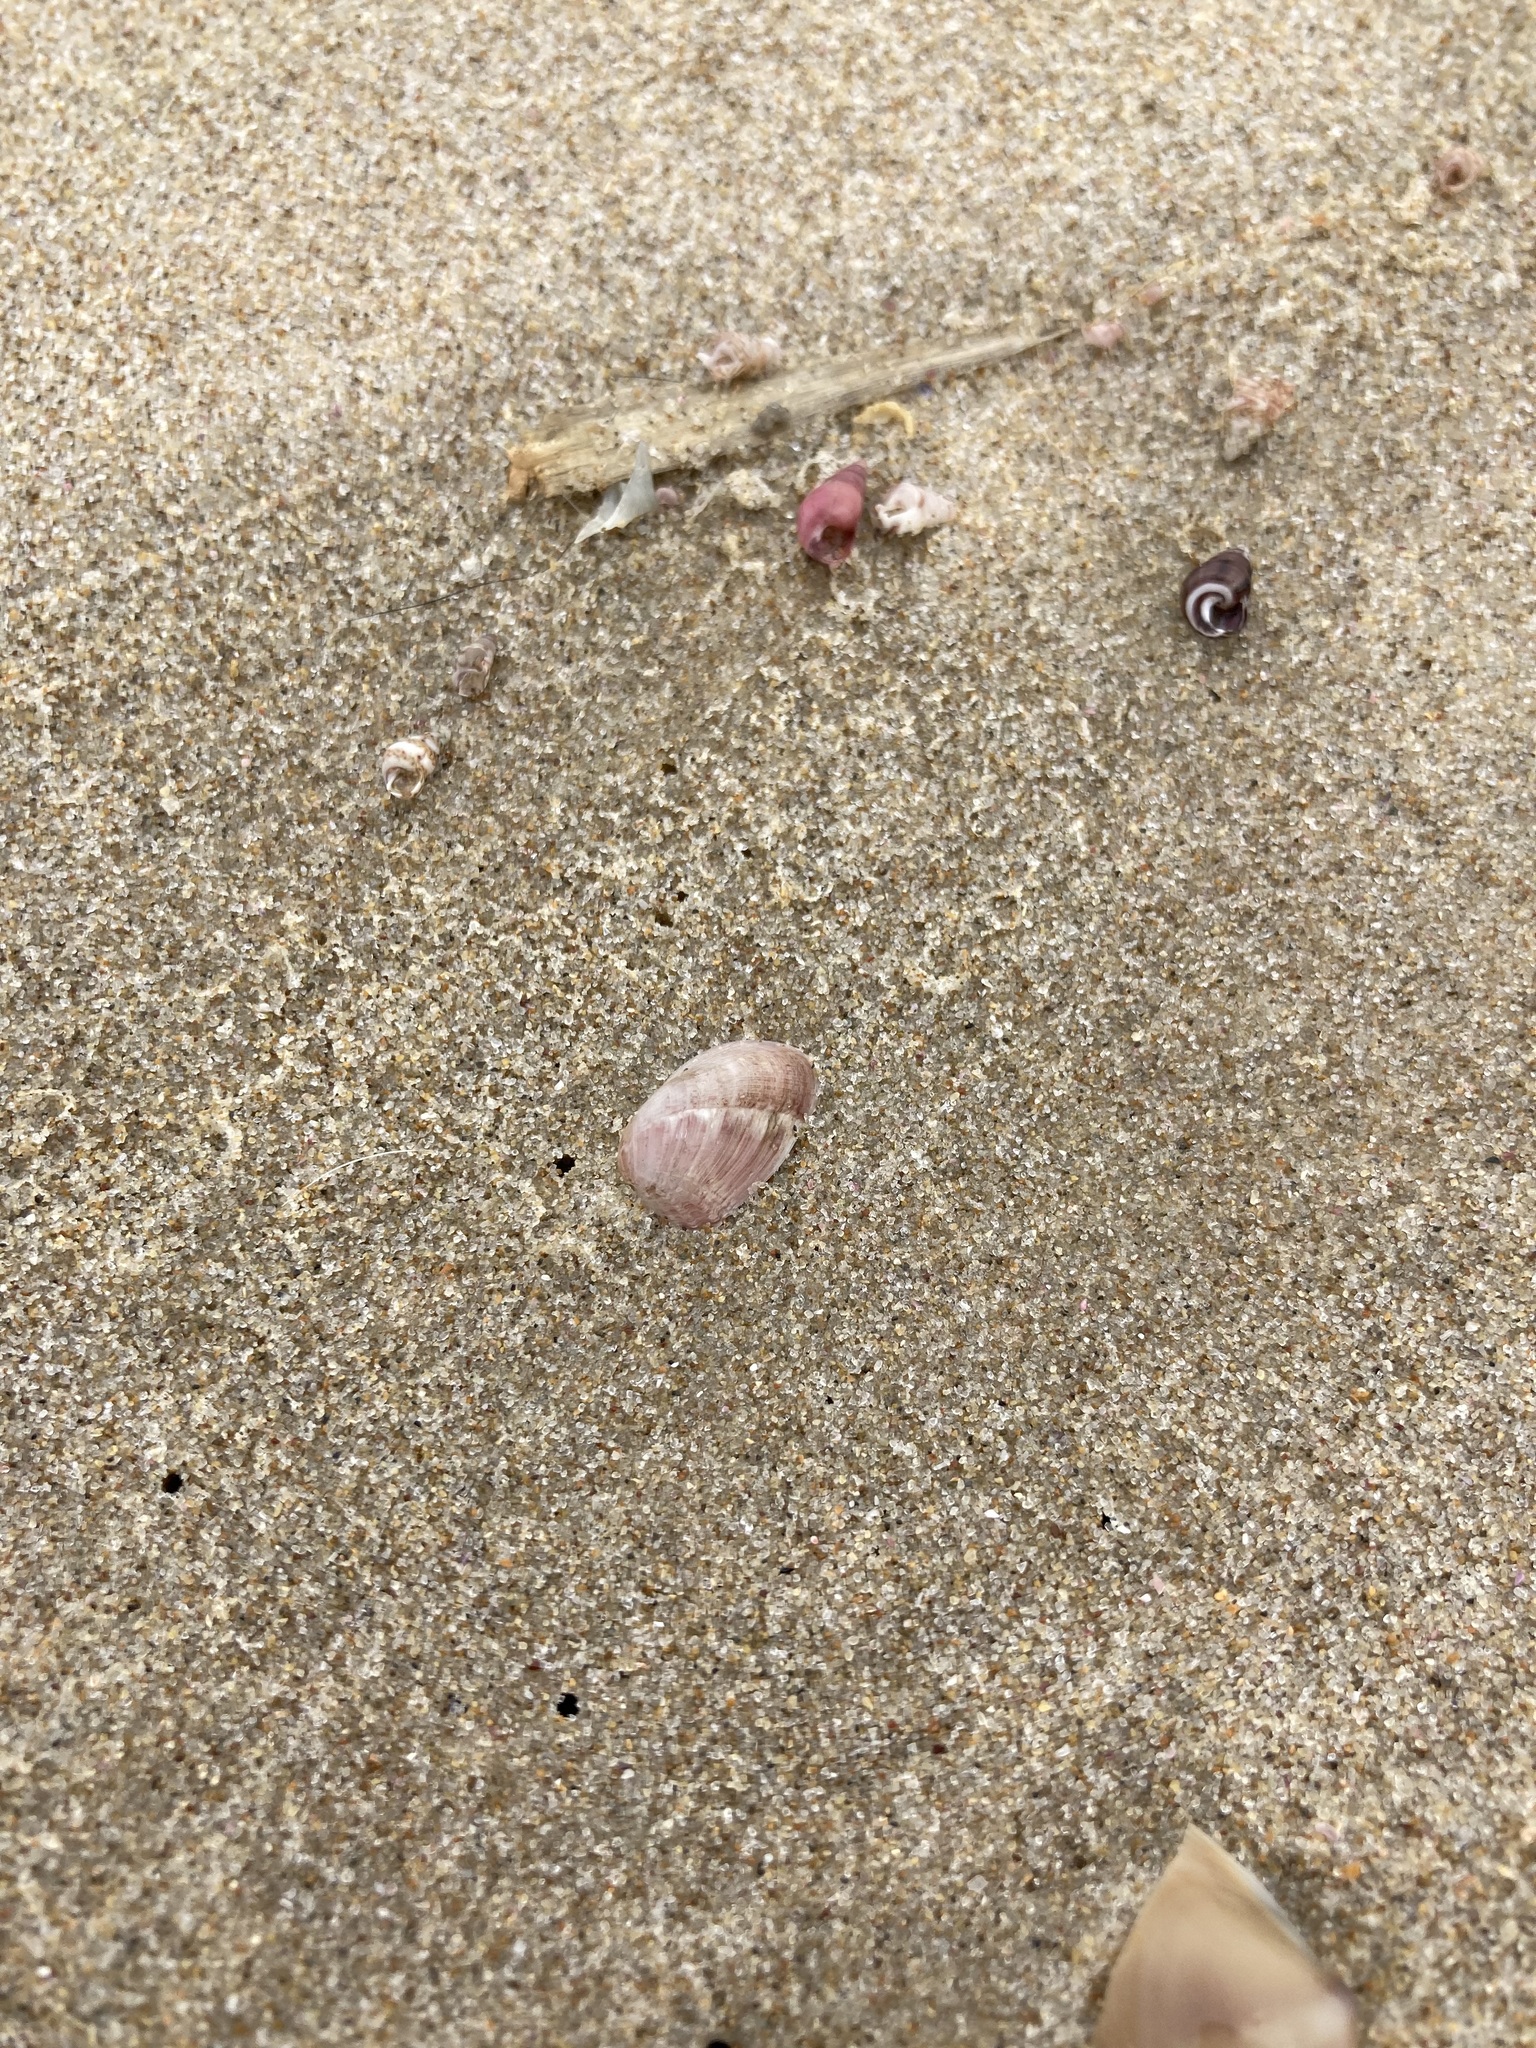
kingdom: Animalia
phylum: Mollusca
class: Bivalvia
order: Mytilida
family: Mytilidae
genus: Musculus
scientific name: Musculus impactus
